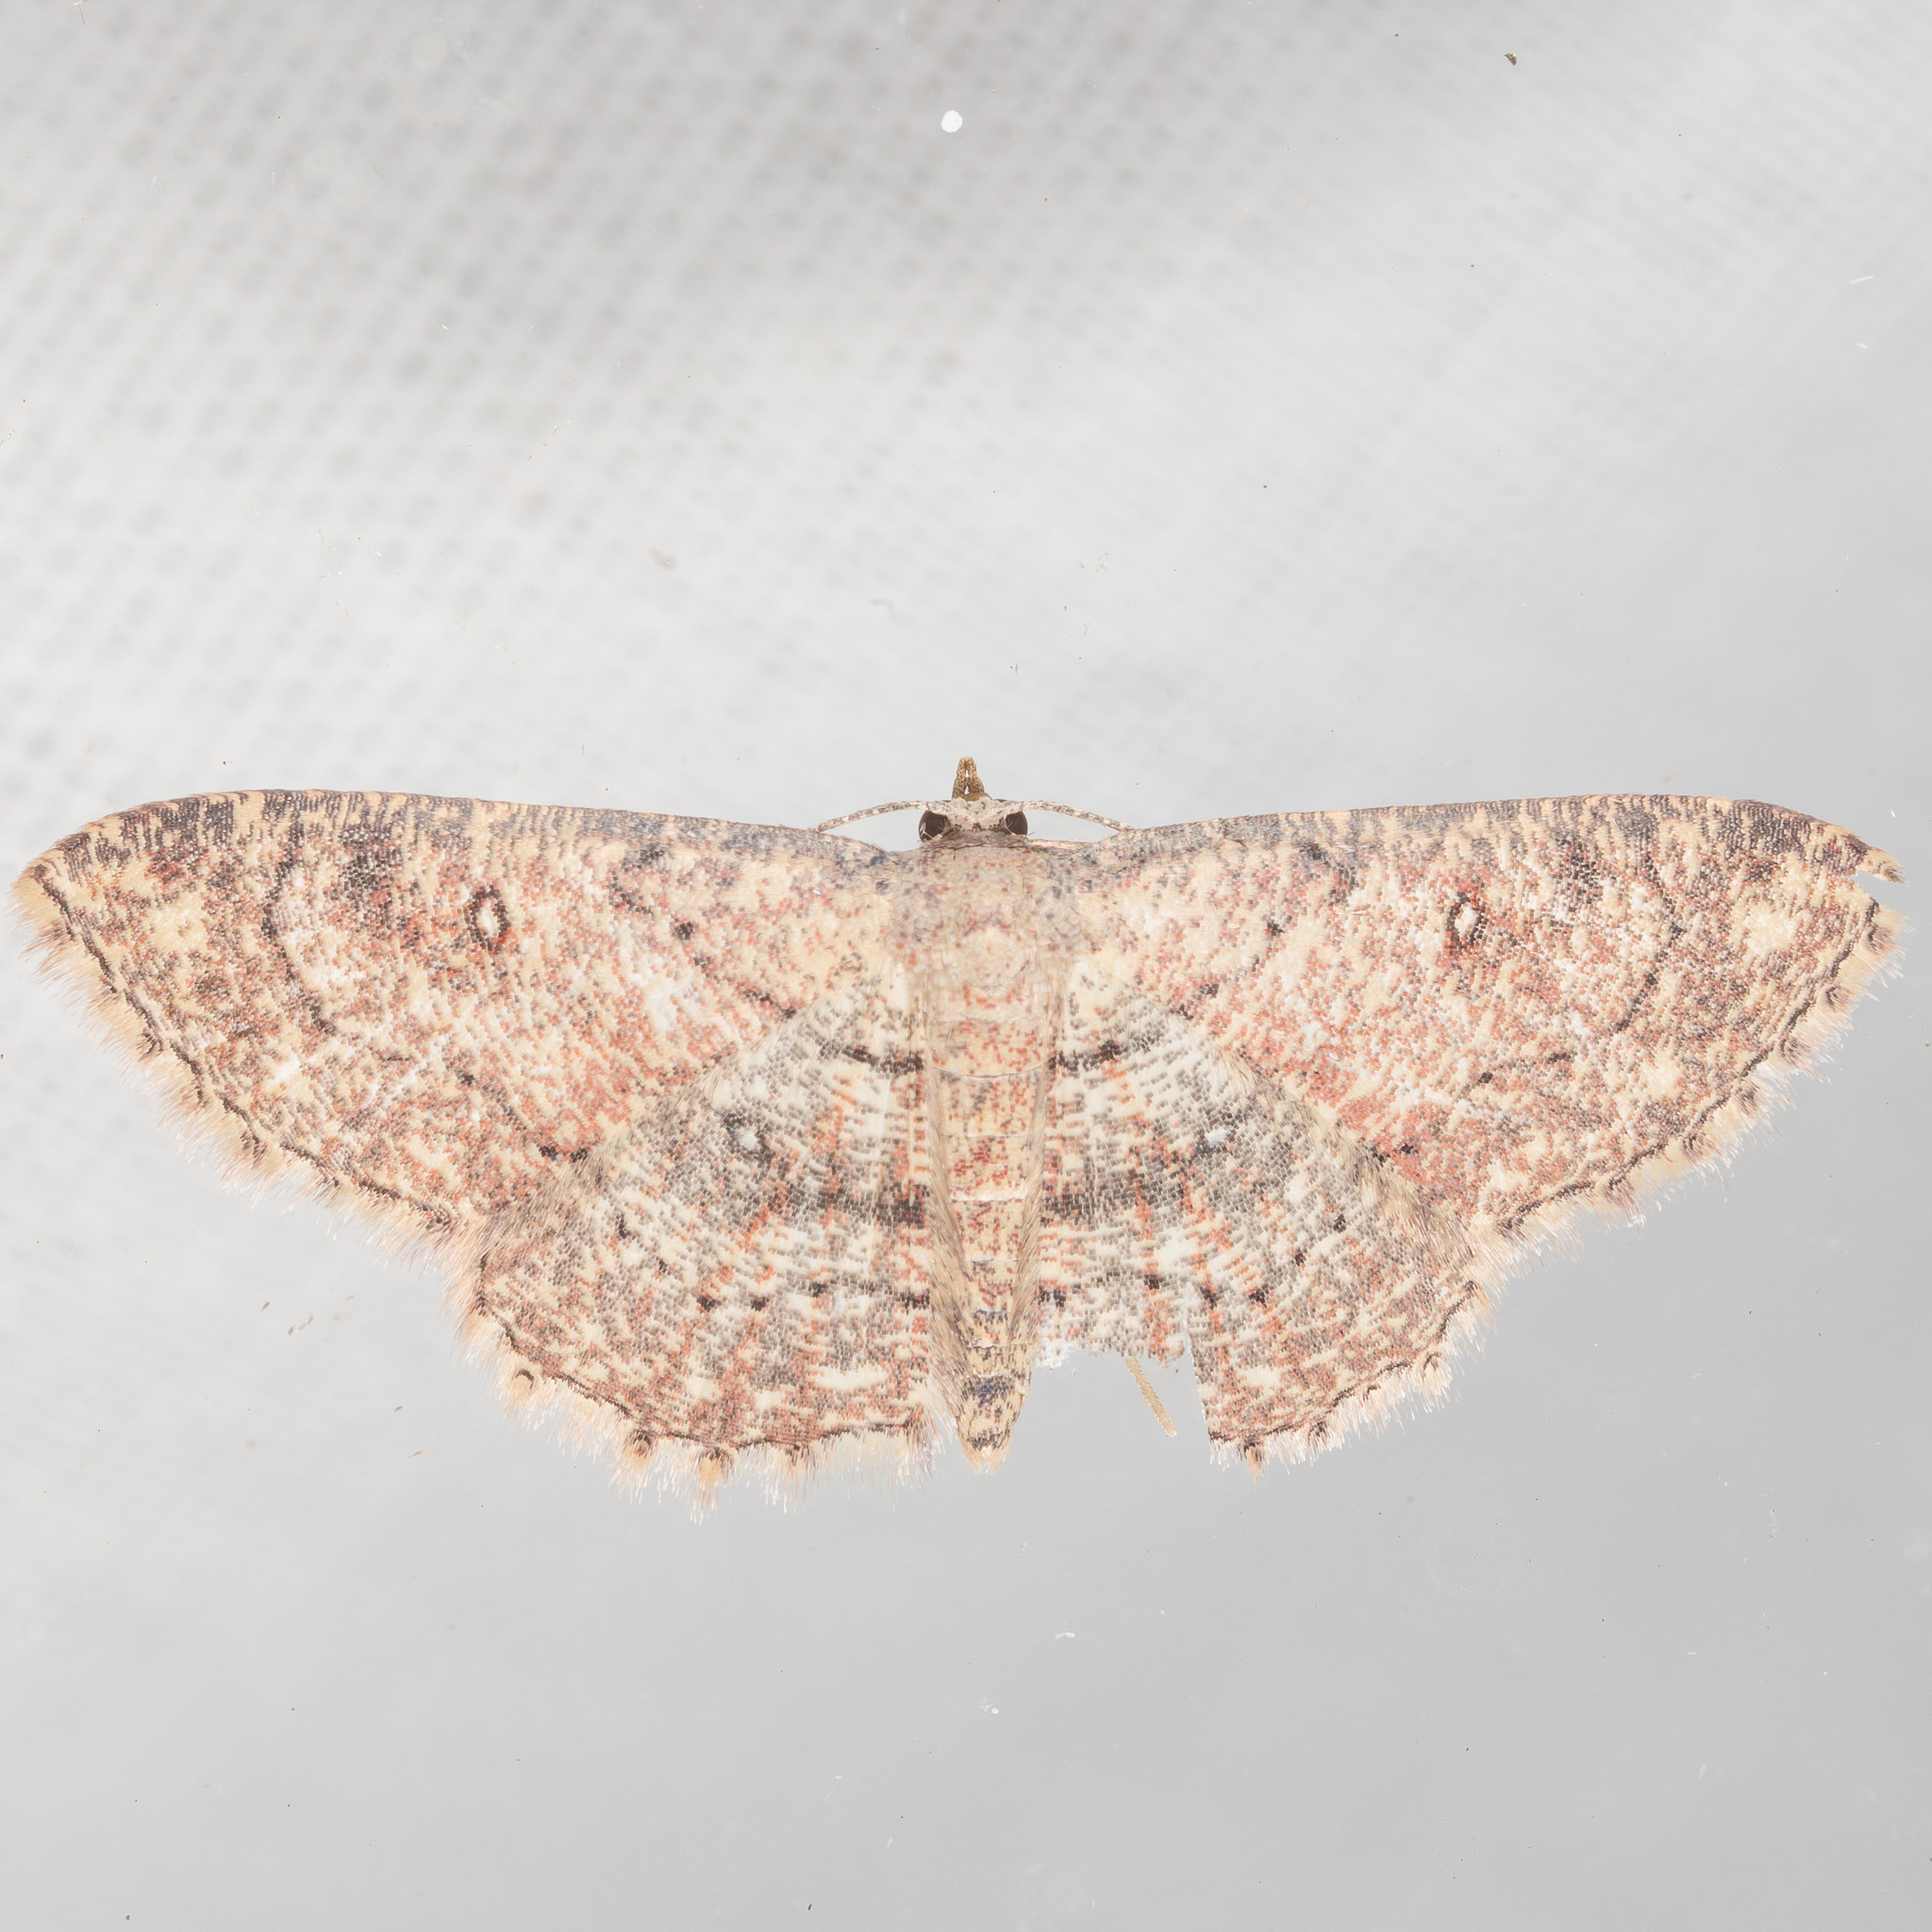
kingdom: Animalia
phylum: Arthropoda
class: Insecta
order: Lepidoptera
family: Geometridae
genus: Cyclophora
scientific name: Cyclophora nanaria
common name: Cankerworm
